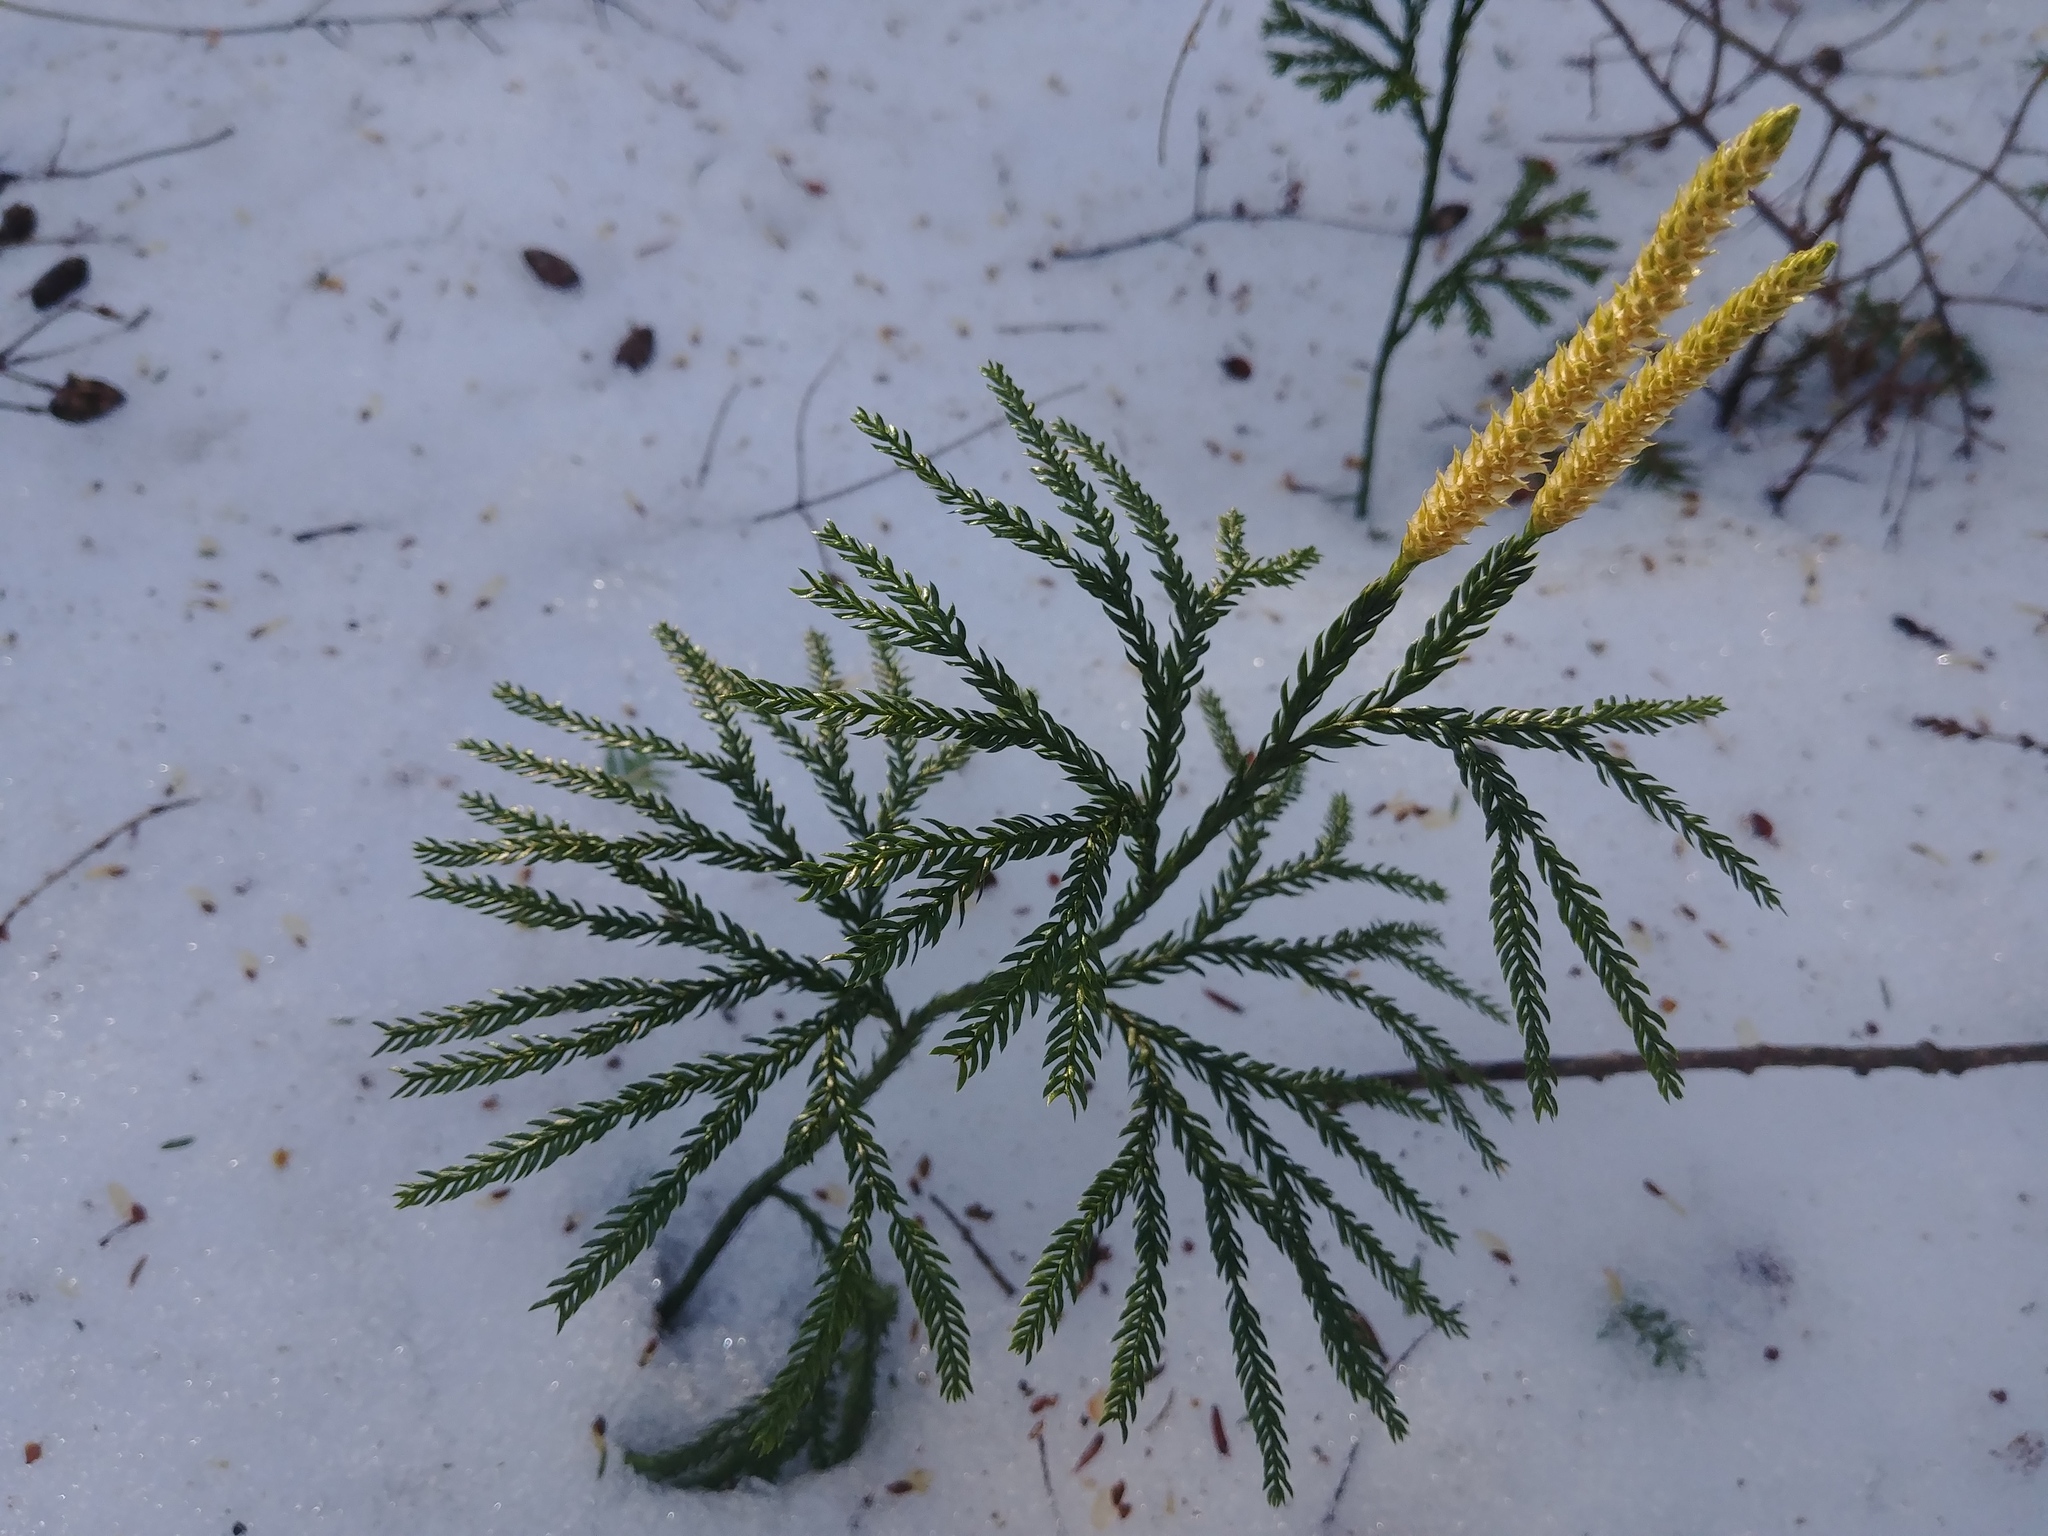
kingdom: Plantae
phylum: Tracheophyta
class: Lycopodiopsida
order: Lycopodiales
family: Lycopodiaceae
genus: Dendrolycopodium
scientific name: Dendrolycopodium obscurum
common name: Common ground-pine
